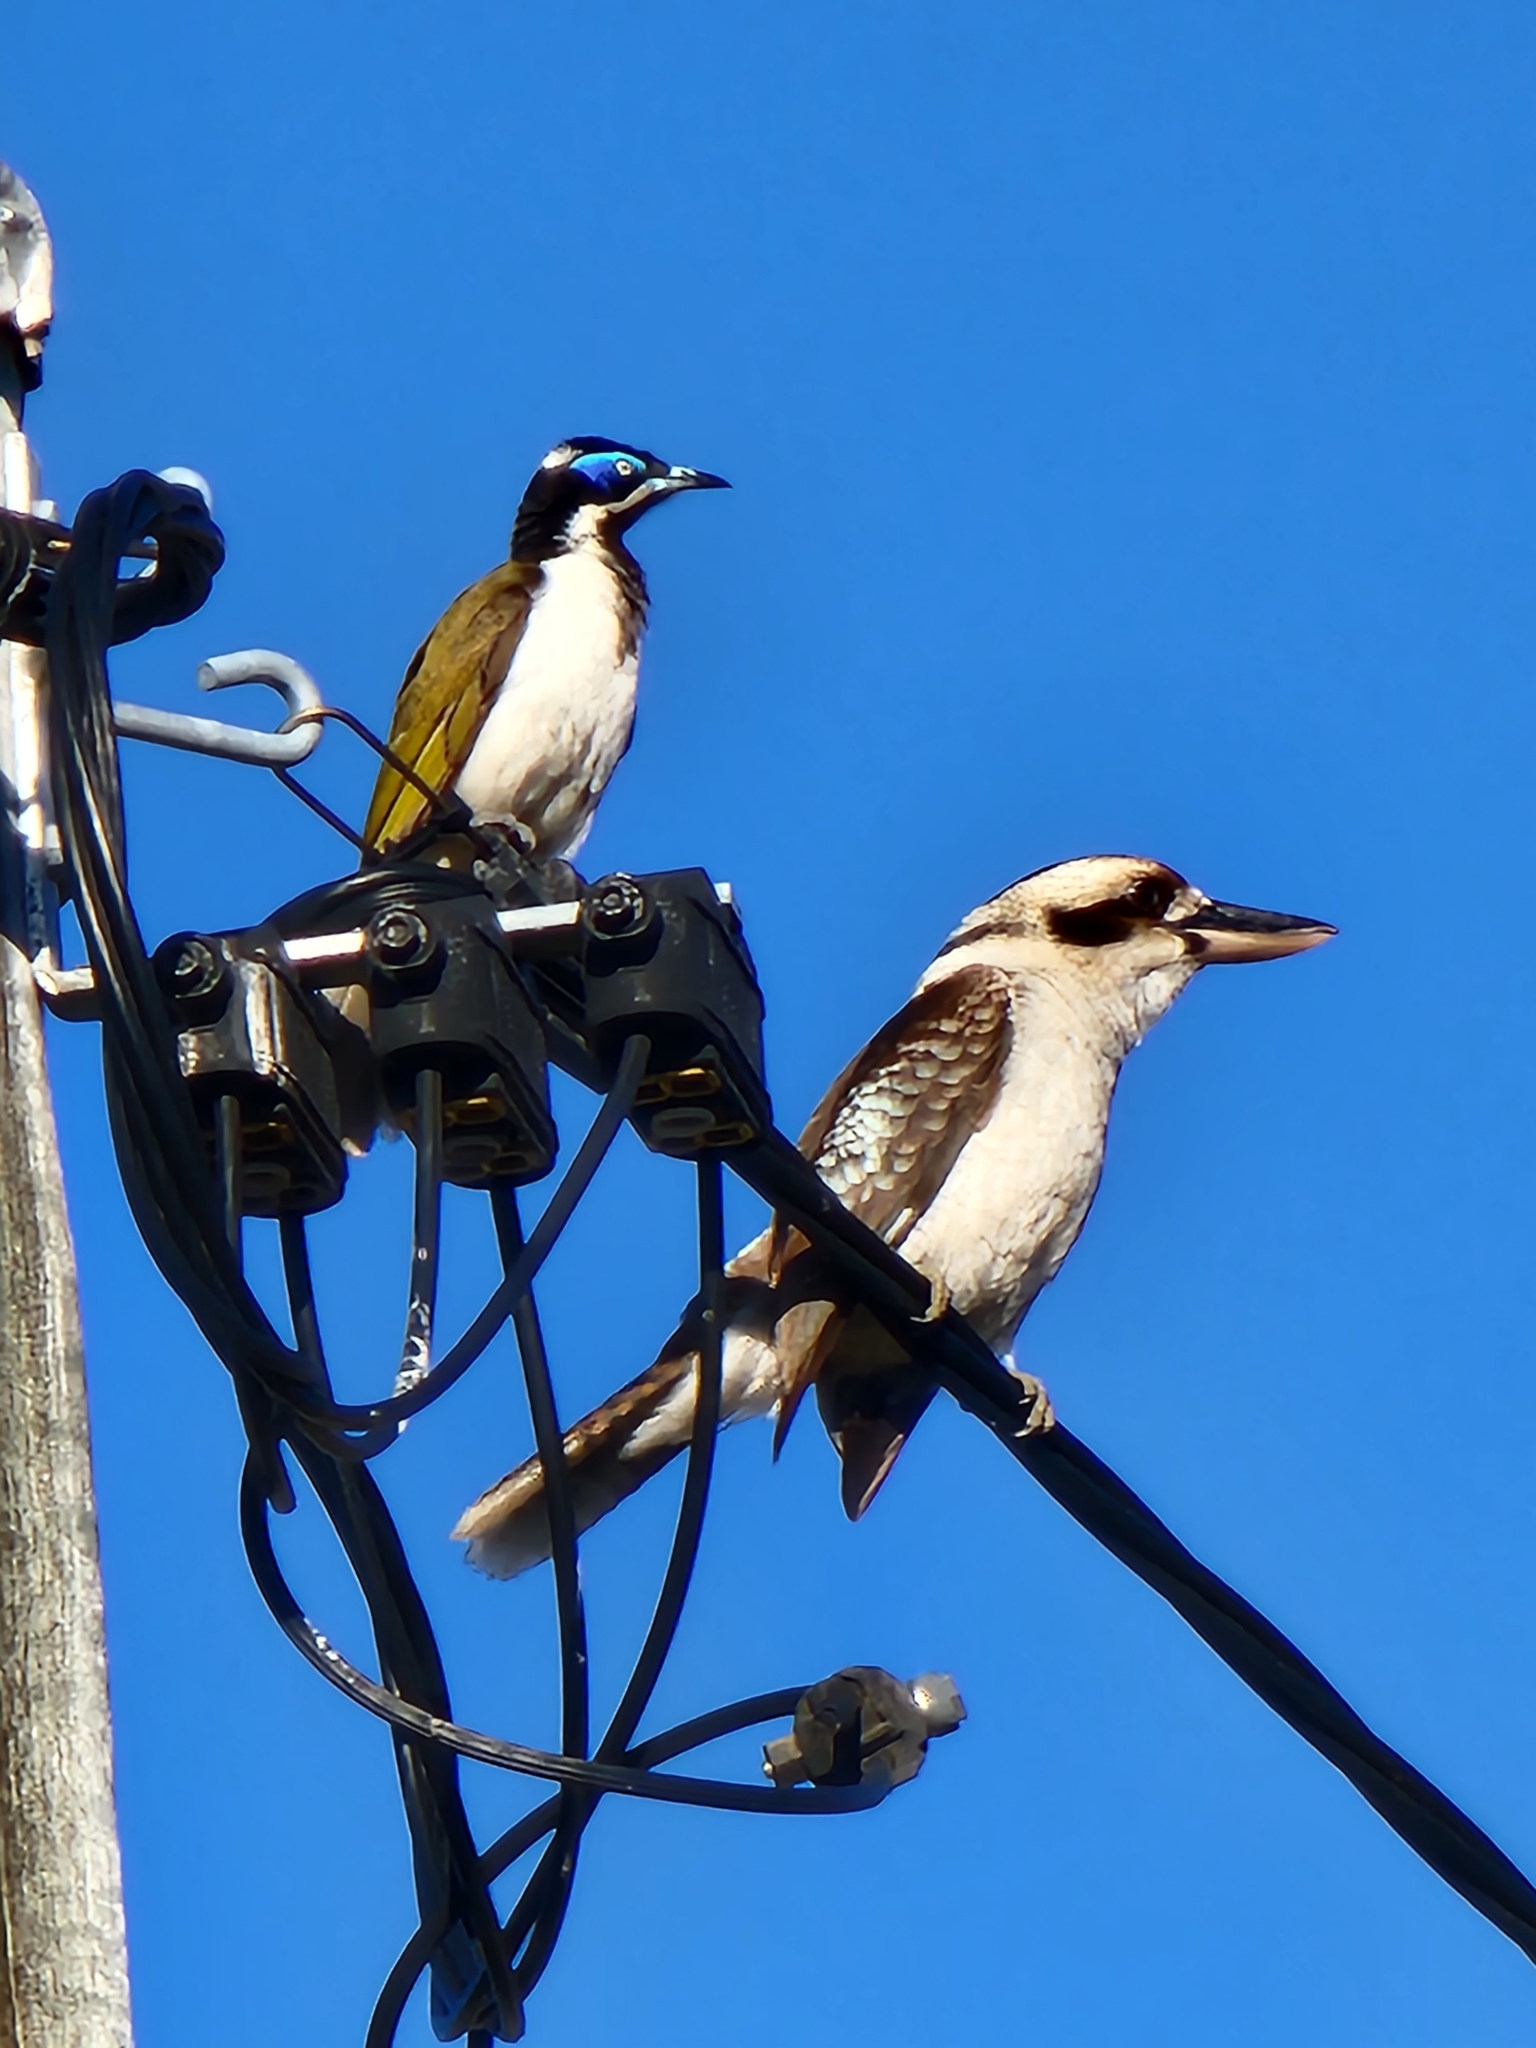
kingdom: Animalia
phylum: Chordata
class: Aves
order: Passeriformes
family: Meliphagidae
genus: Entomyzon
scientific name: Entomyzon cyanotis
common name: Blue-faced honeyeater
